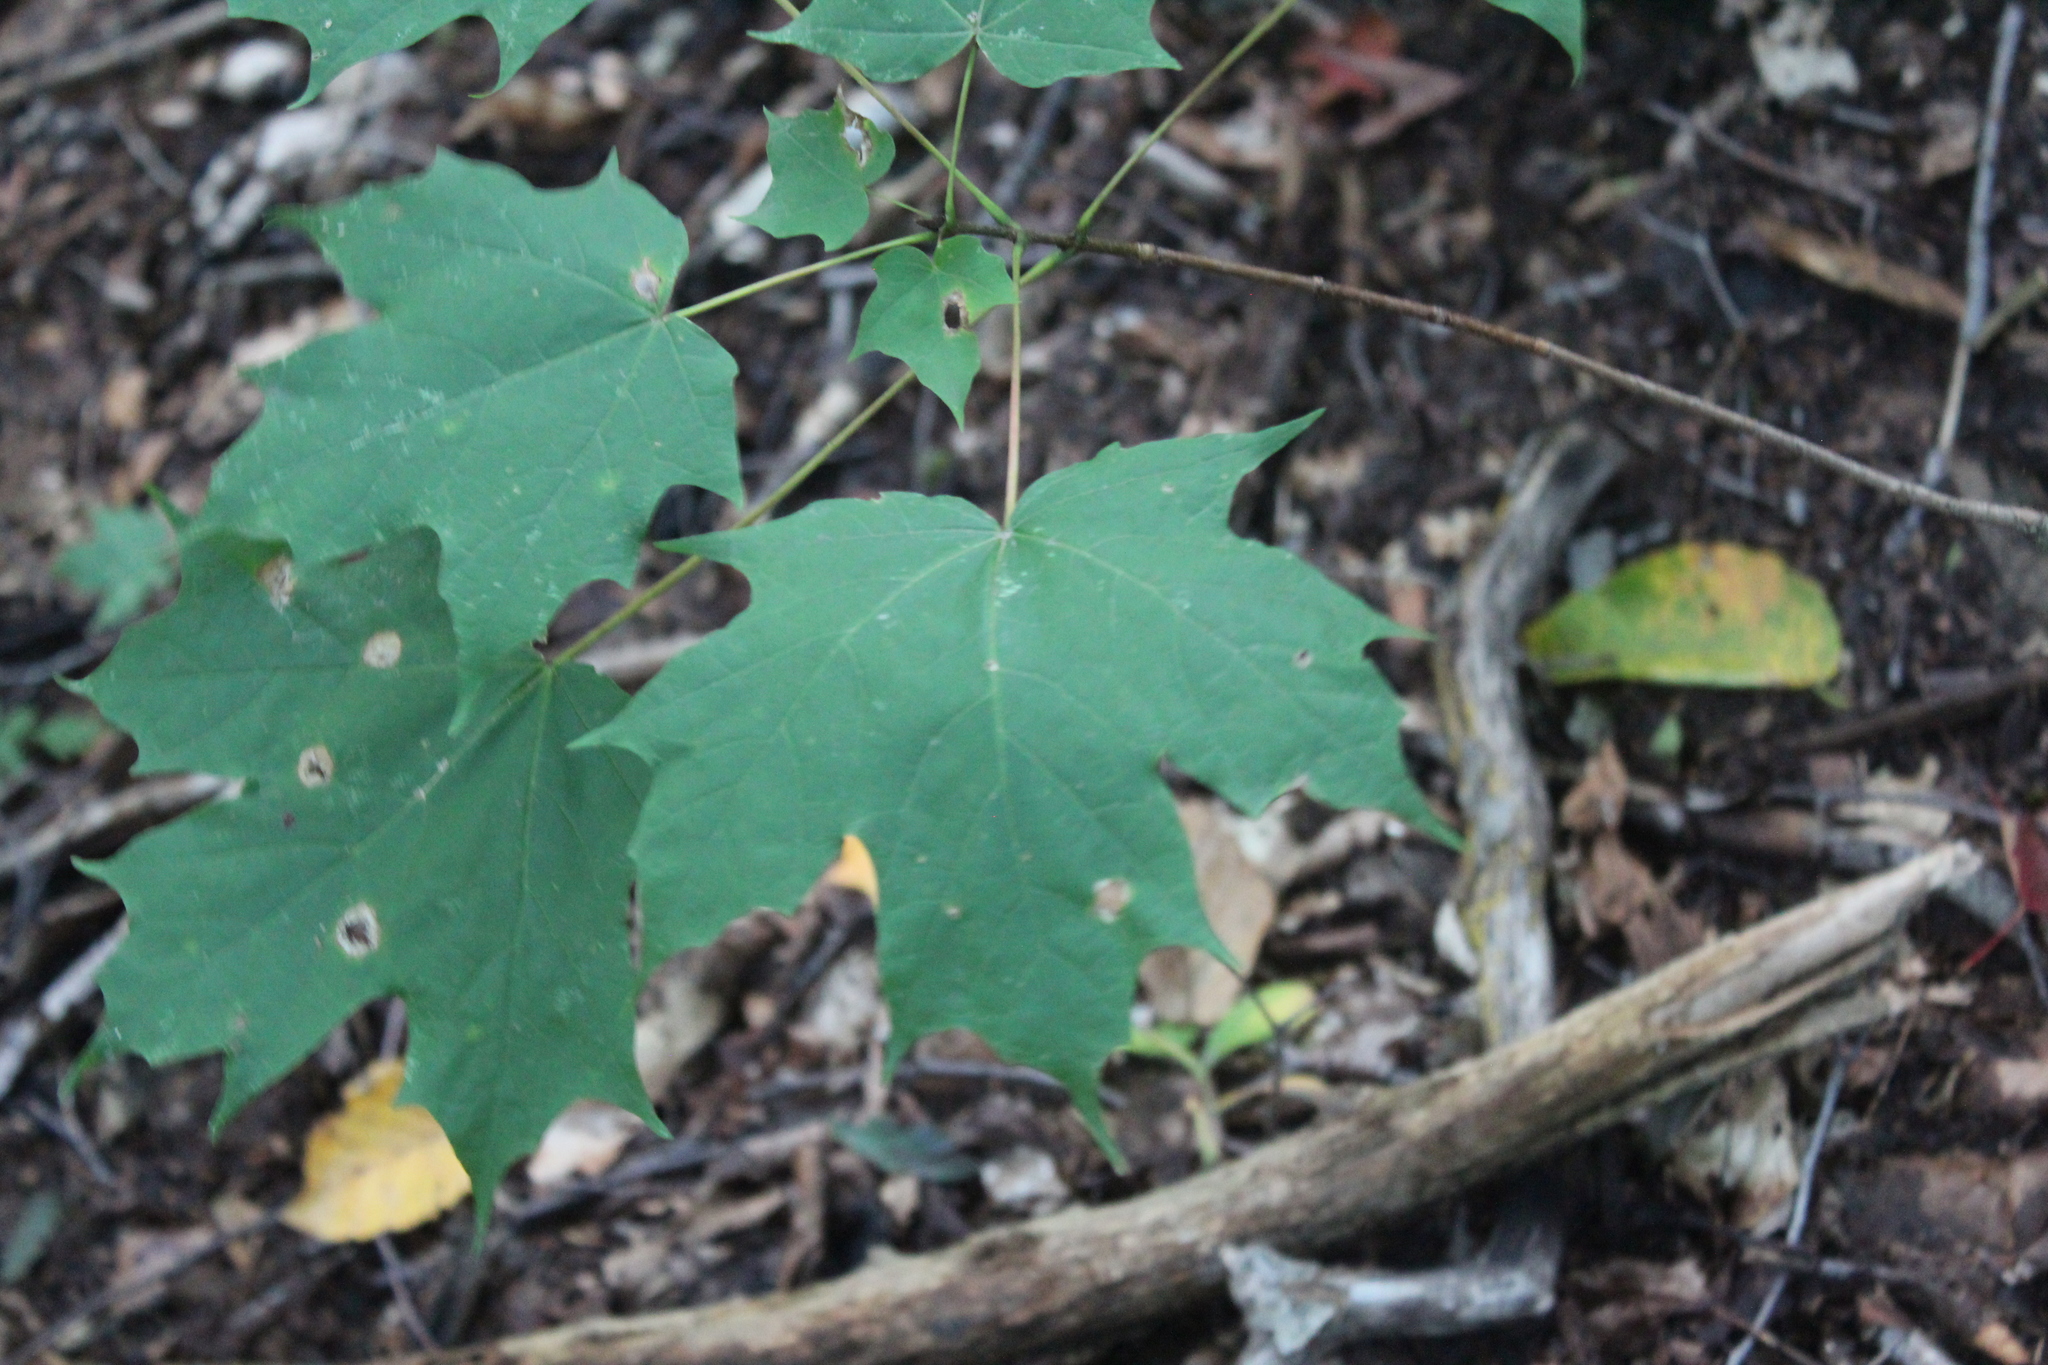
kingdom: Plantae
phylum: Tracheophyta
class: Magnoliopsida
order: Sapindales
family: Sapindaceae
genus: Acer
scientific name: Acer saccharum
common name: Sugar maple
